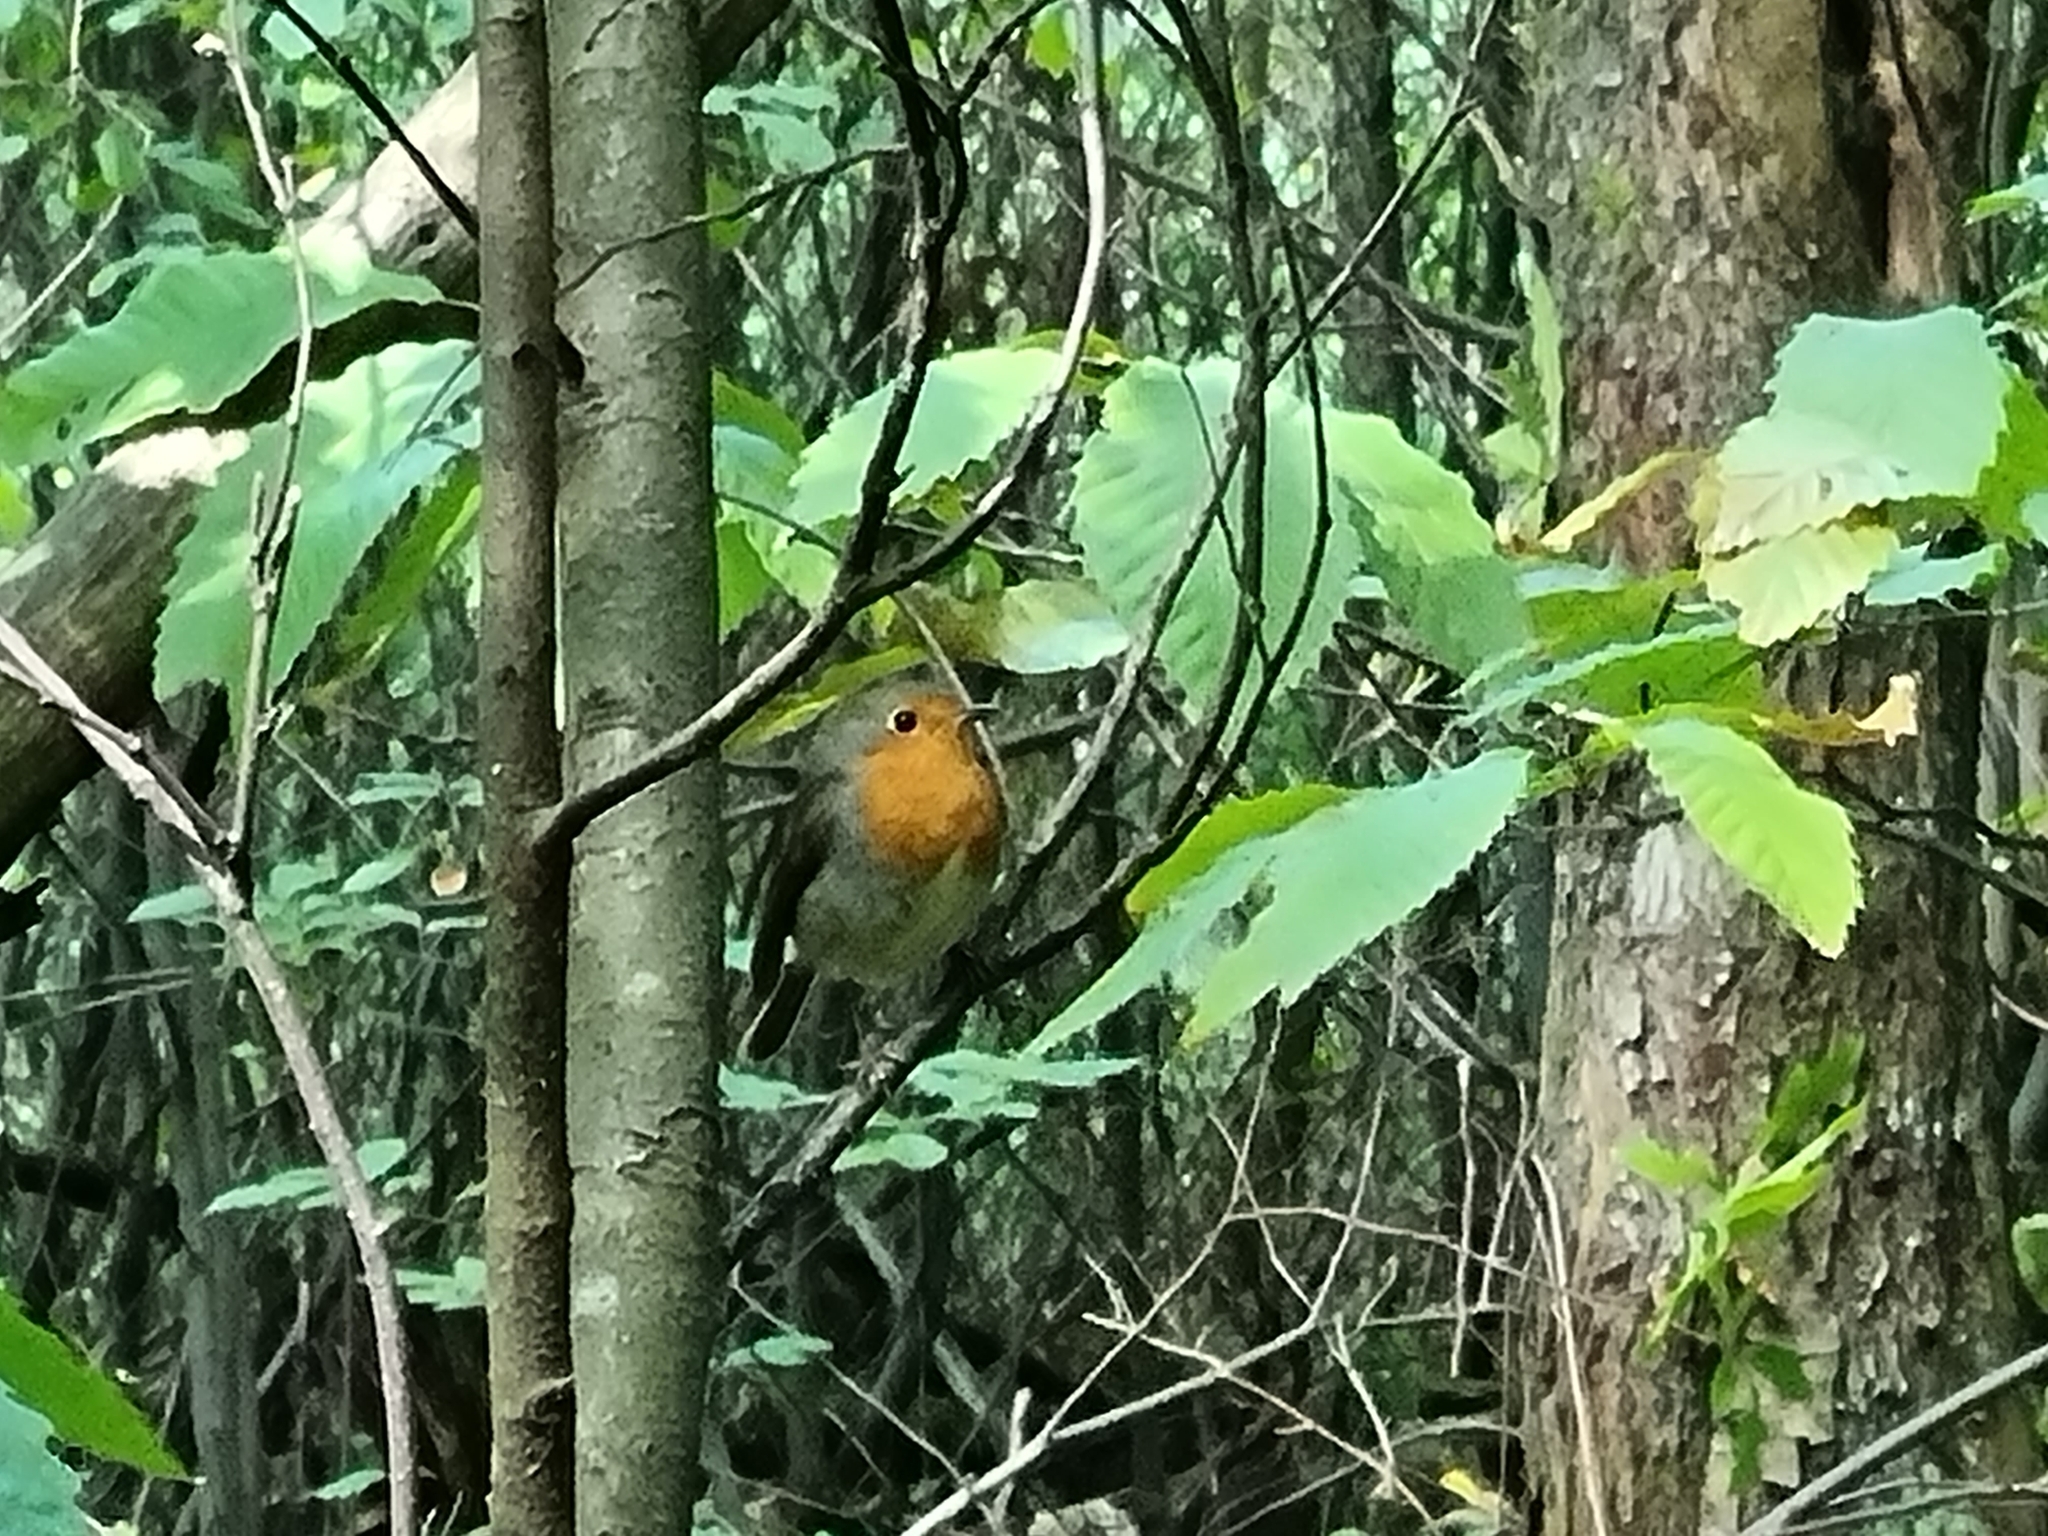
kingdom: Animalia
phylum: Chordata
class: Aves
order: Passeriformes
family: Muscicapidae
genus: Erithacus
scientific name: Erithacus rubecula
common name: European robin
